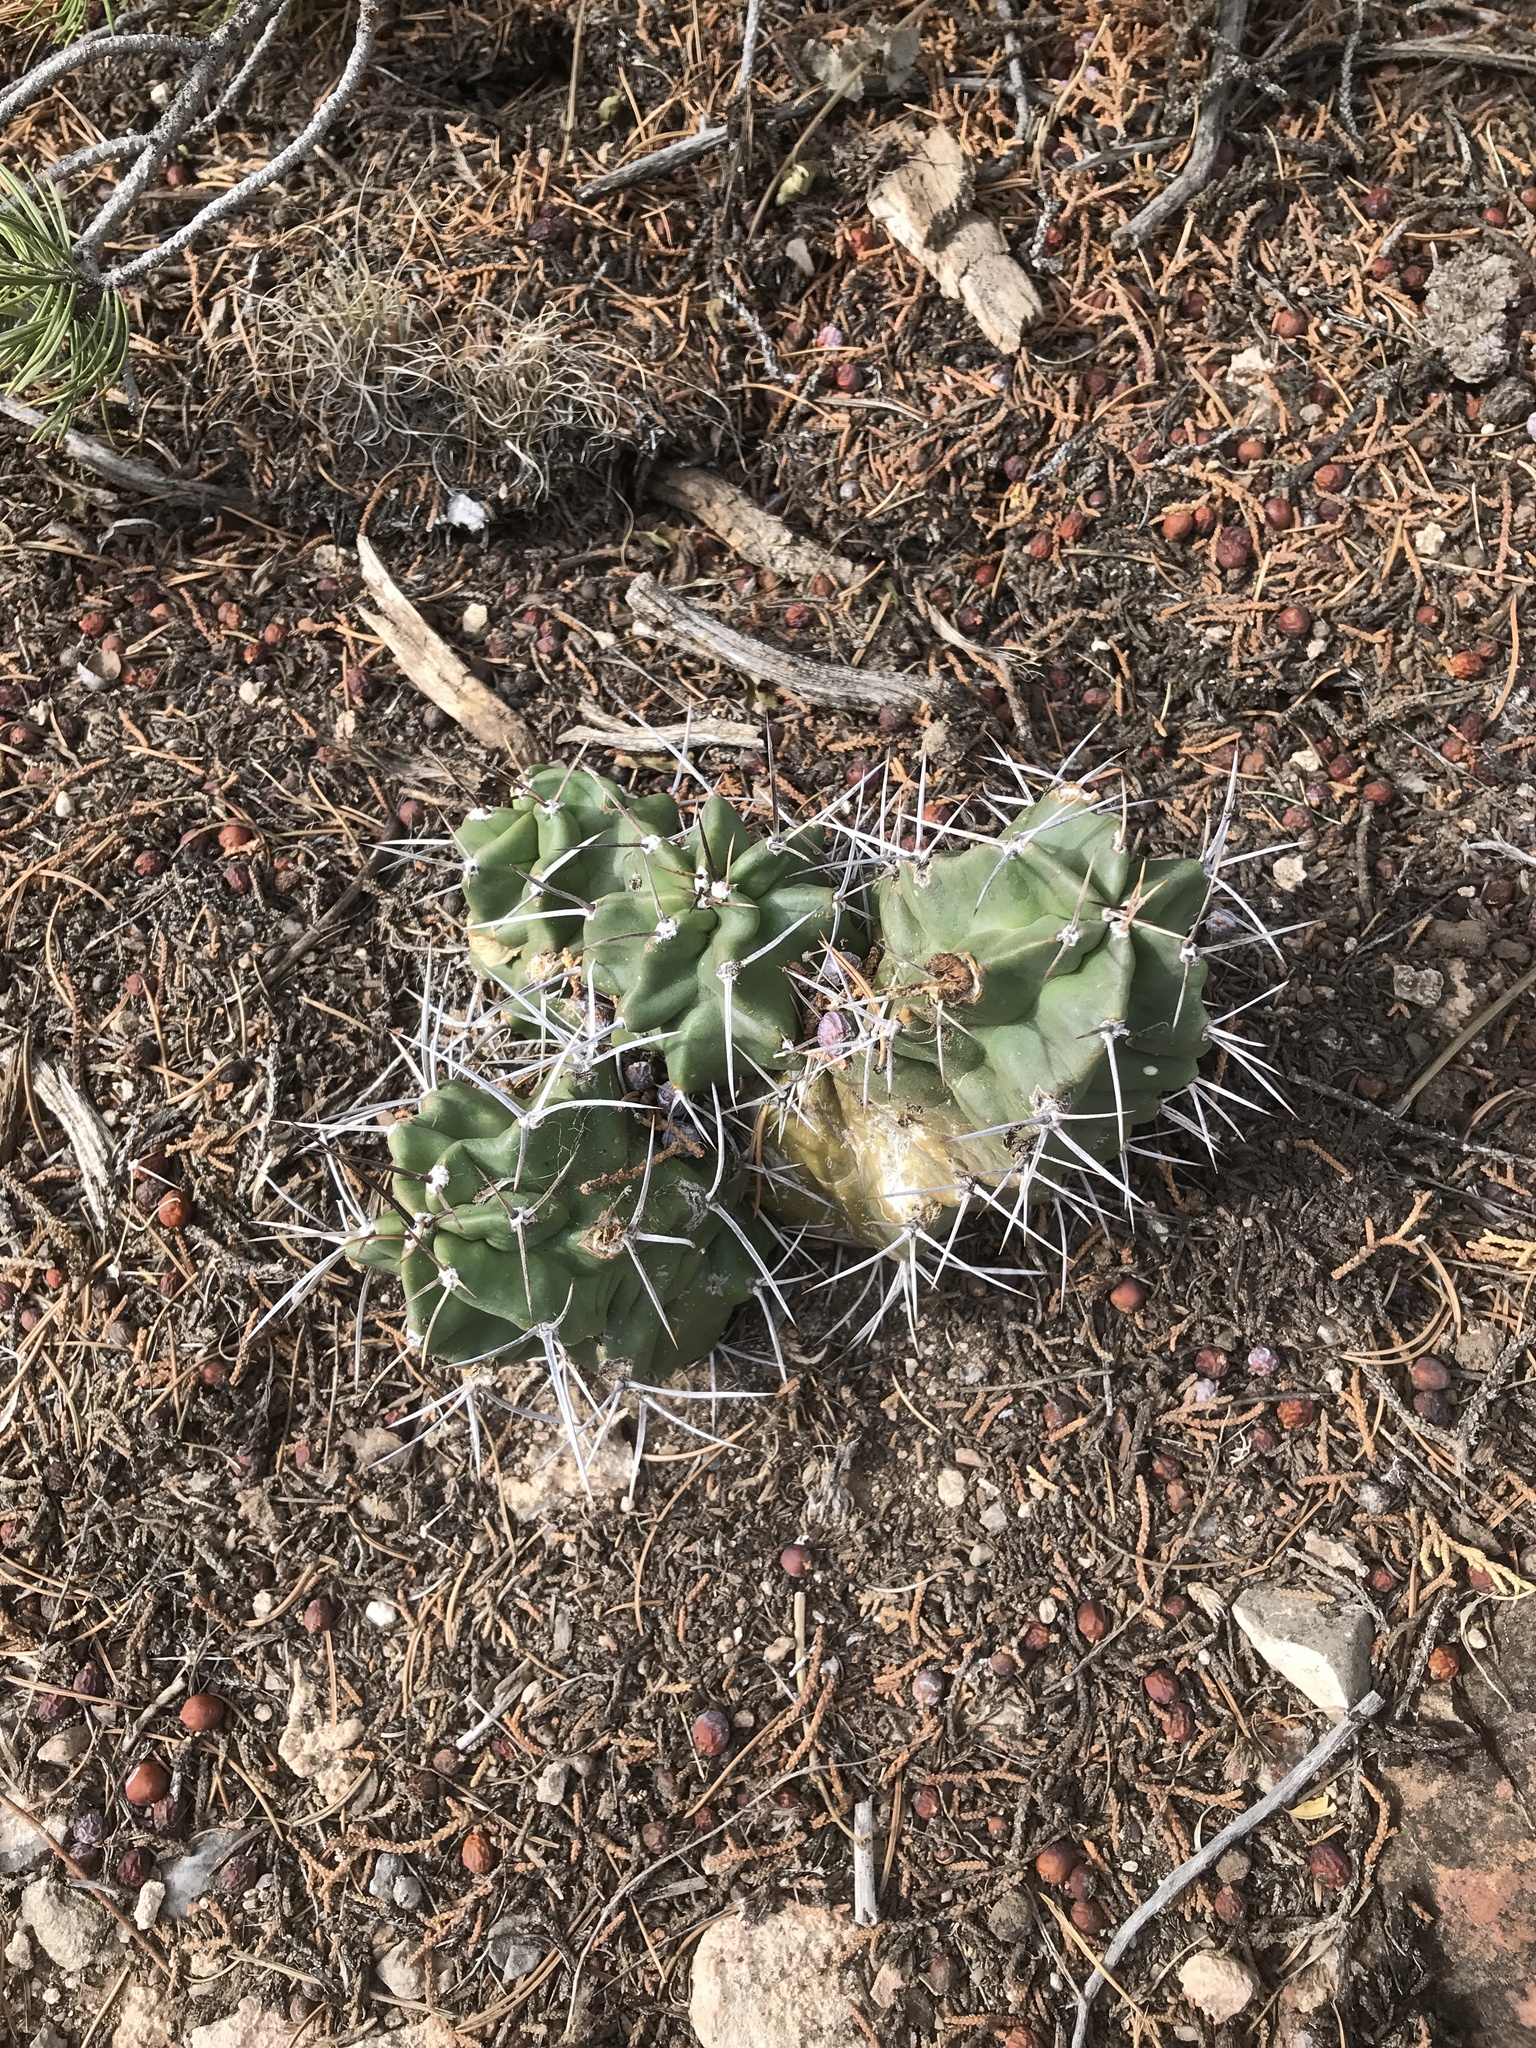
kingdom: Plantae
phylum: Tracheophyta
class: Magnoliopsida
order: Caryophyllales
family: Cactaceae
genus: Echinocereus
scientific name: Echinocereus triglochidiatus
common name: Claretcup hedgehog
